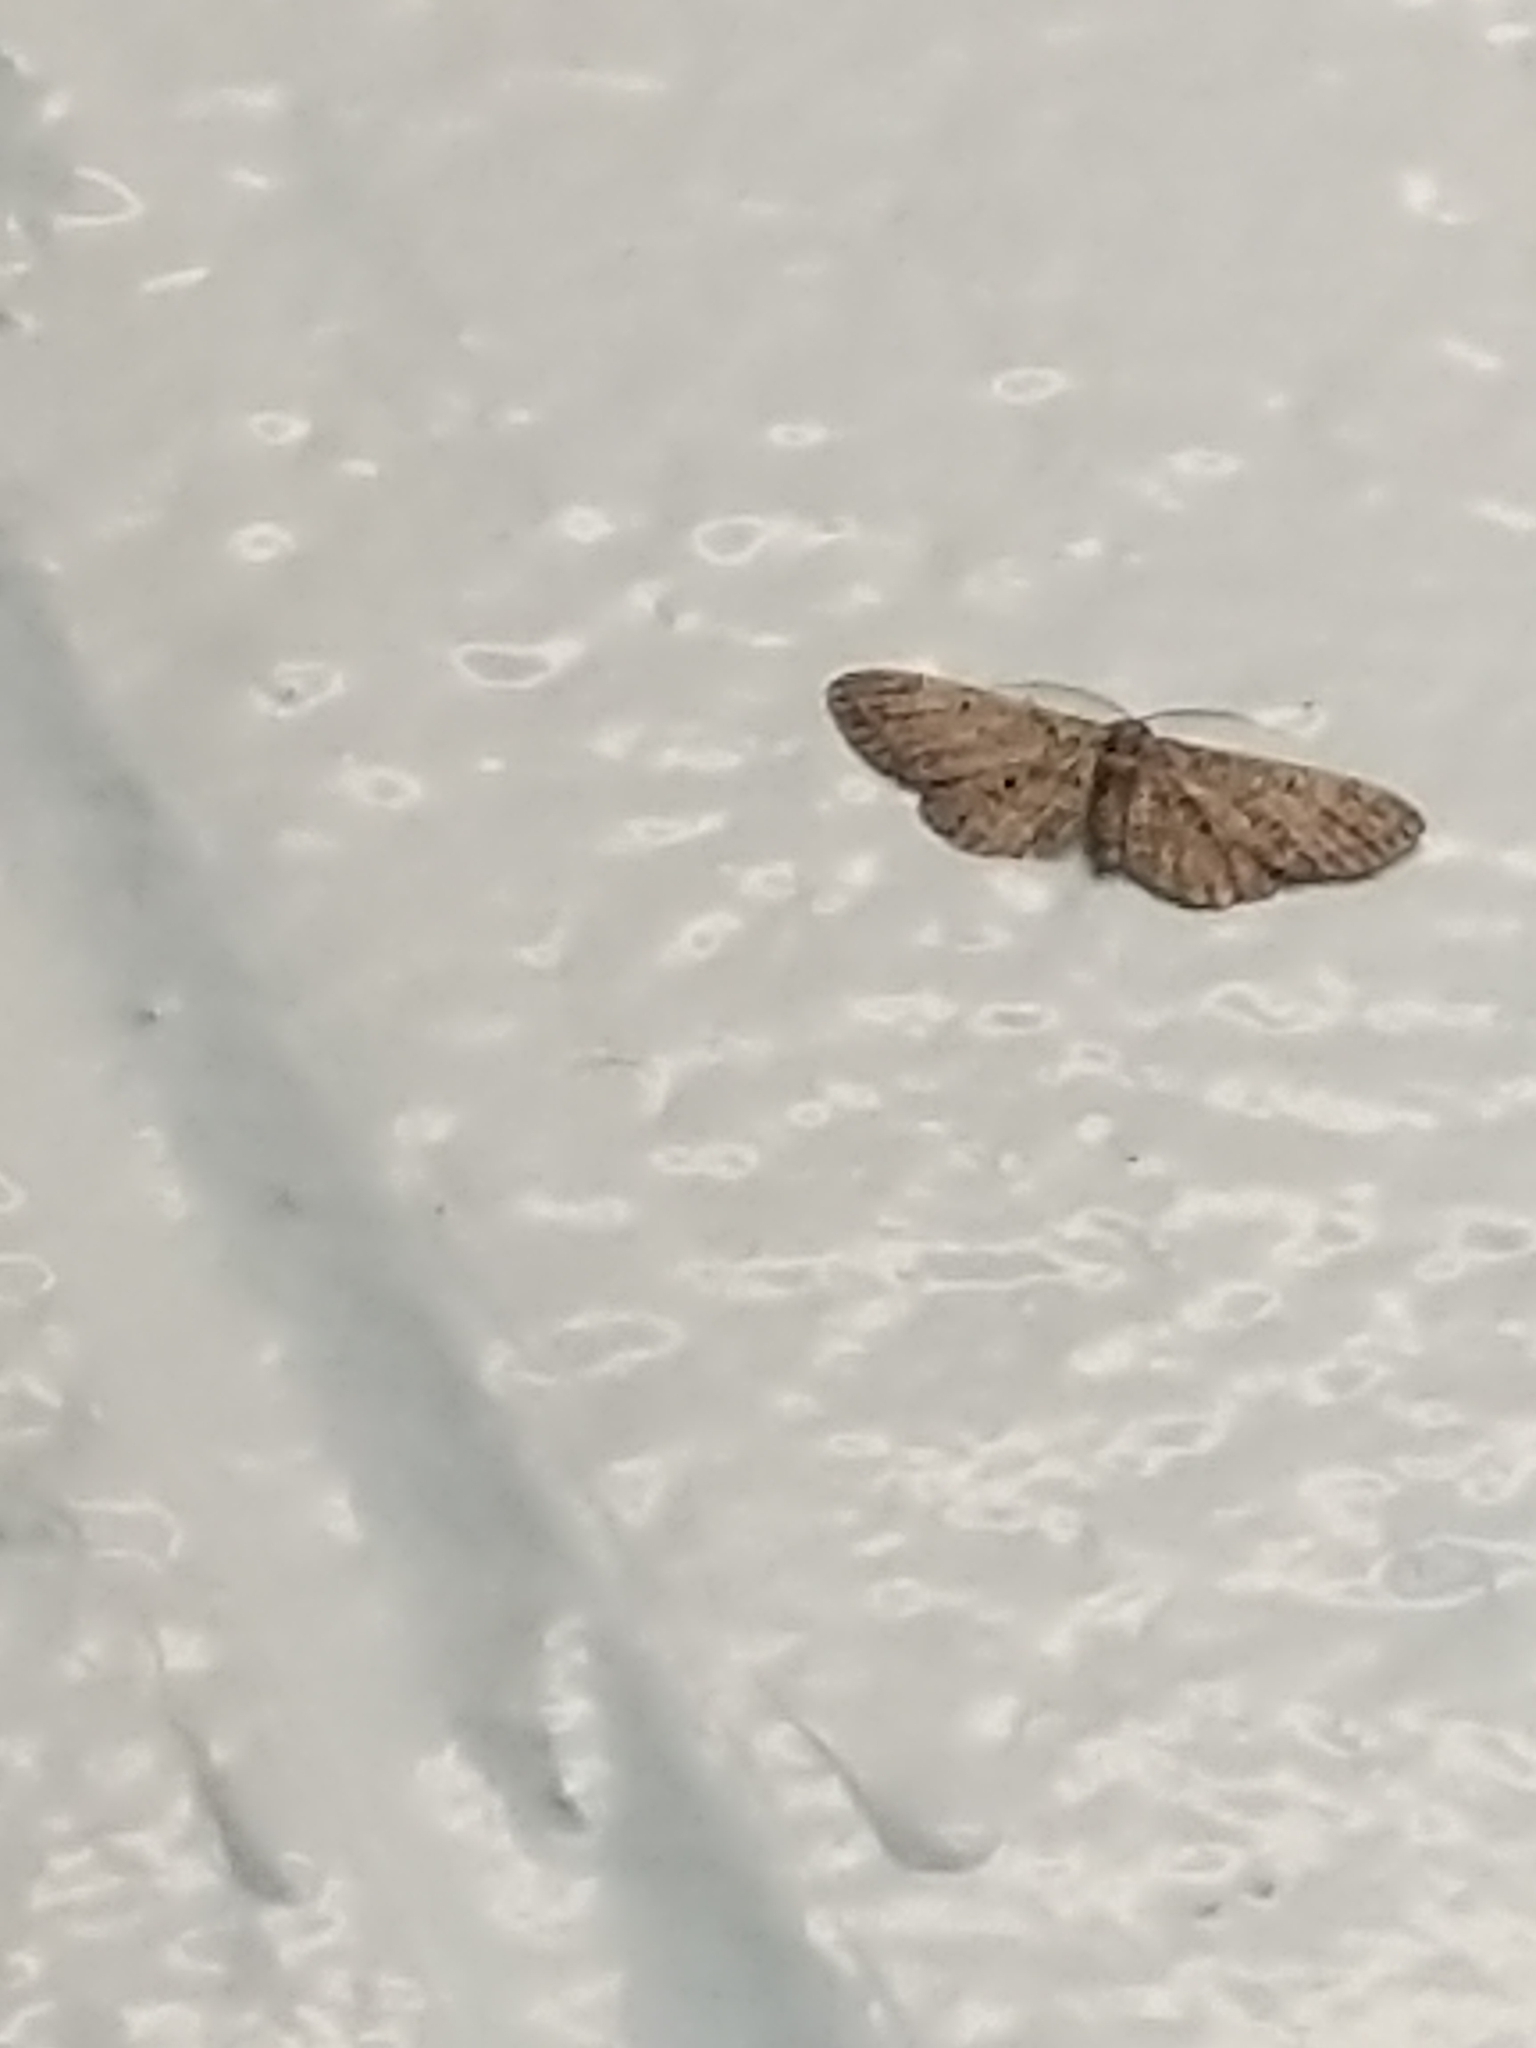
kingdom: Animalia
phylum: Arthropoda
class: Insecta
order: Lepidoptera
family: Geometridae
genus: Glenoides
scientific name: Glenoides texanaria
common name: Texas gray
